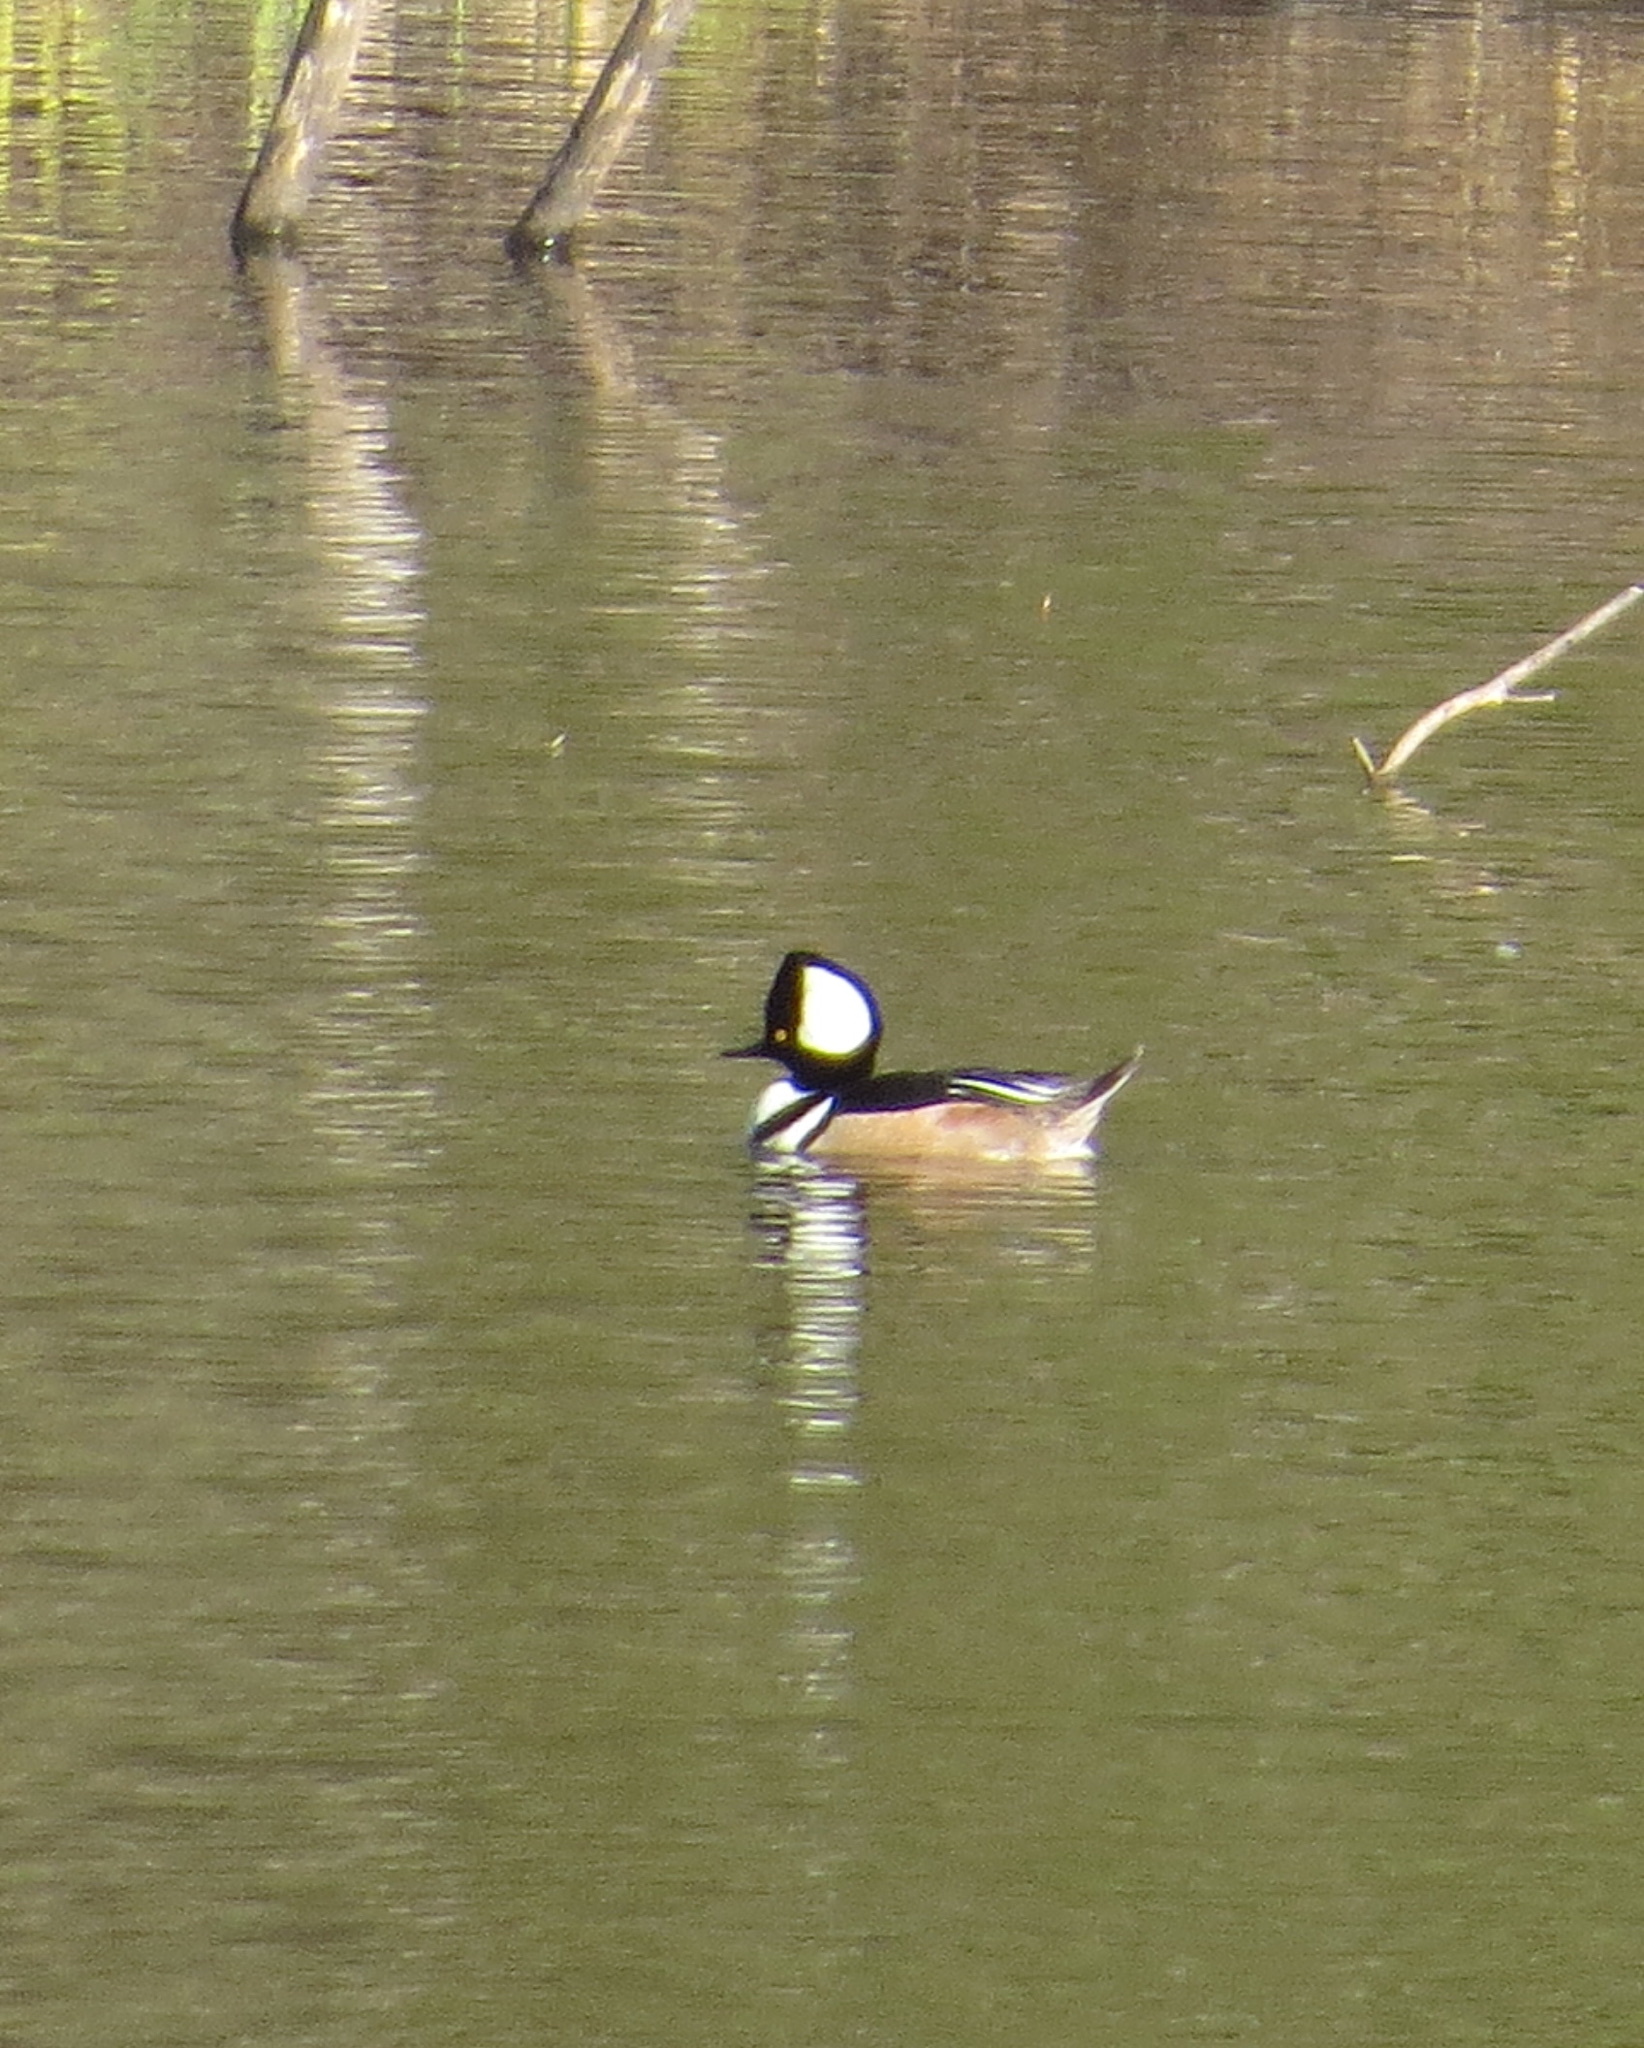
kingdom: Animalia
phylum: Chordata
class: Aves
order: Anseriformes
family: Anatidae
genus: Lophodytes
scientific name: Lophodytes cucullatus
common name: Hooded merganser
